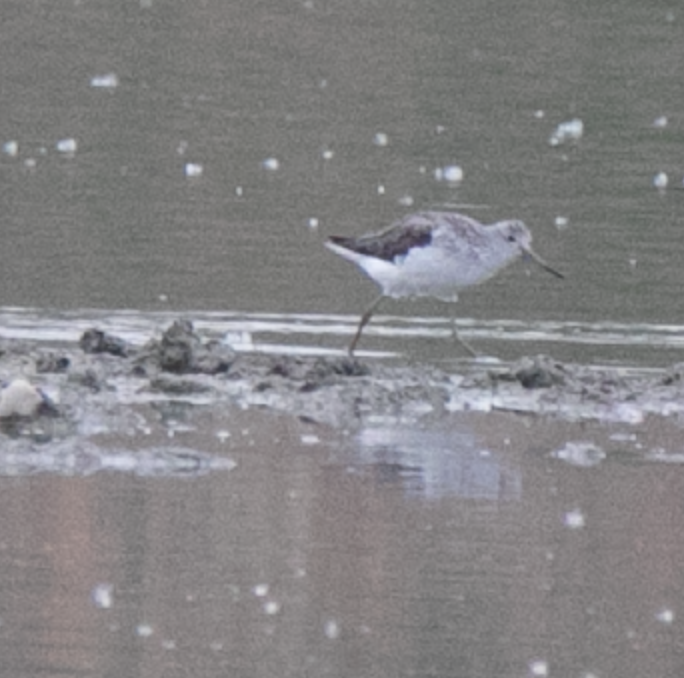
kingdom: Animalia
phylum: Chordata
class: Aves
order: Charadriiformes
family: Scolopacidae
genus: Tringa
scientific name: Tringa nebularia
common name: Common greenshank
